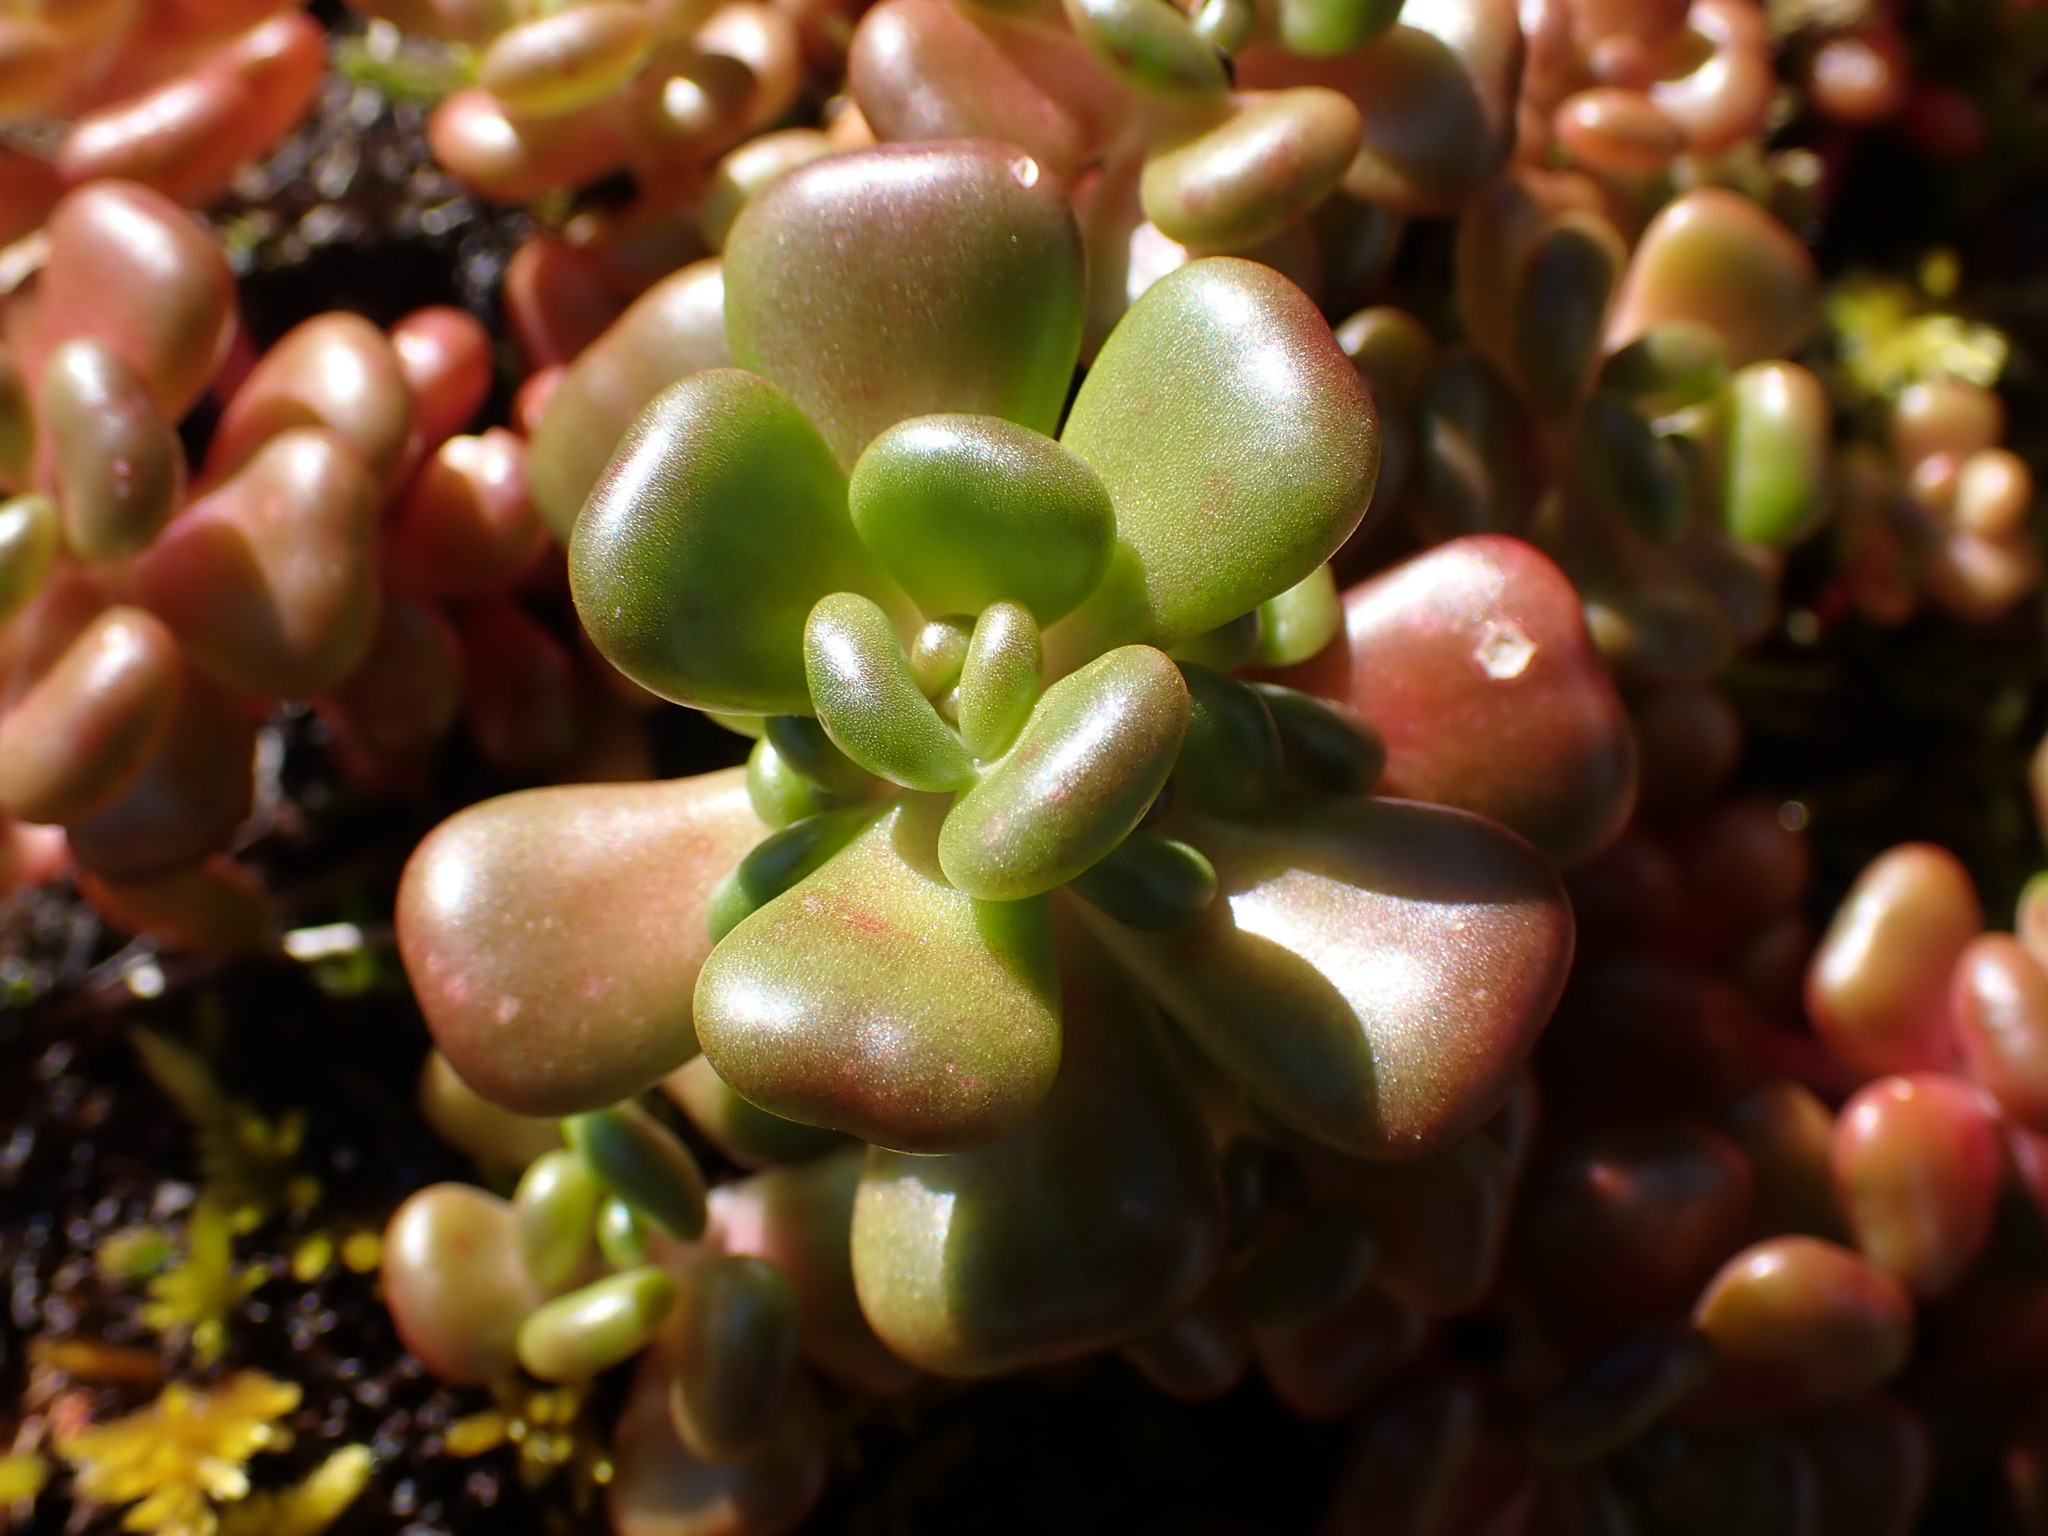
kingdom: Plantae
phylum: Tracheophyta
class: Magnoliopsida
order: Saxifragales
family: Crassulaceae
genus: Sedum
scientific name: Sedum oreganum
